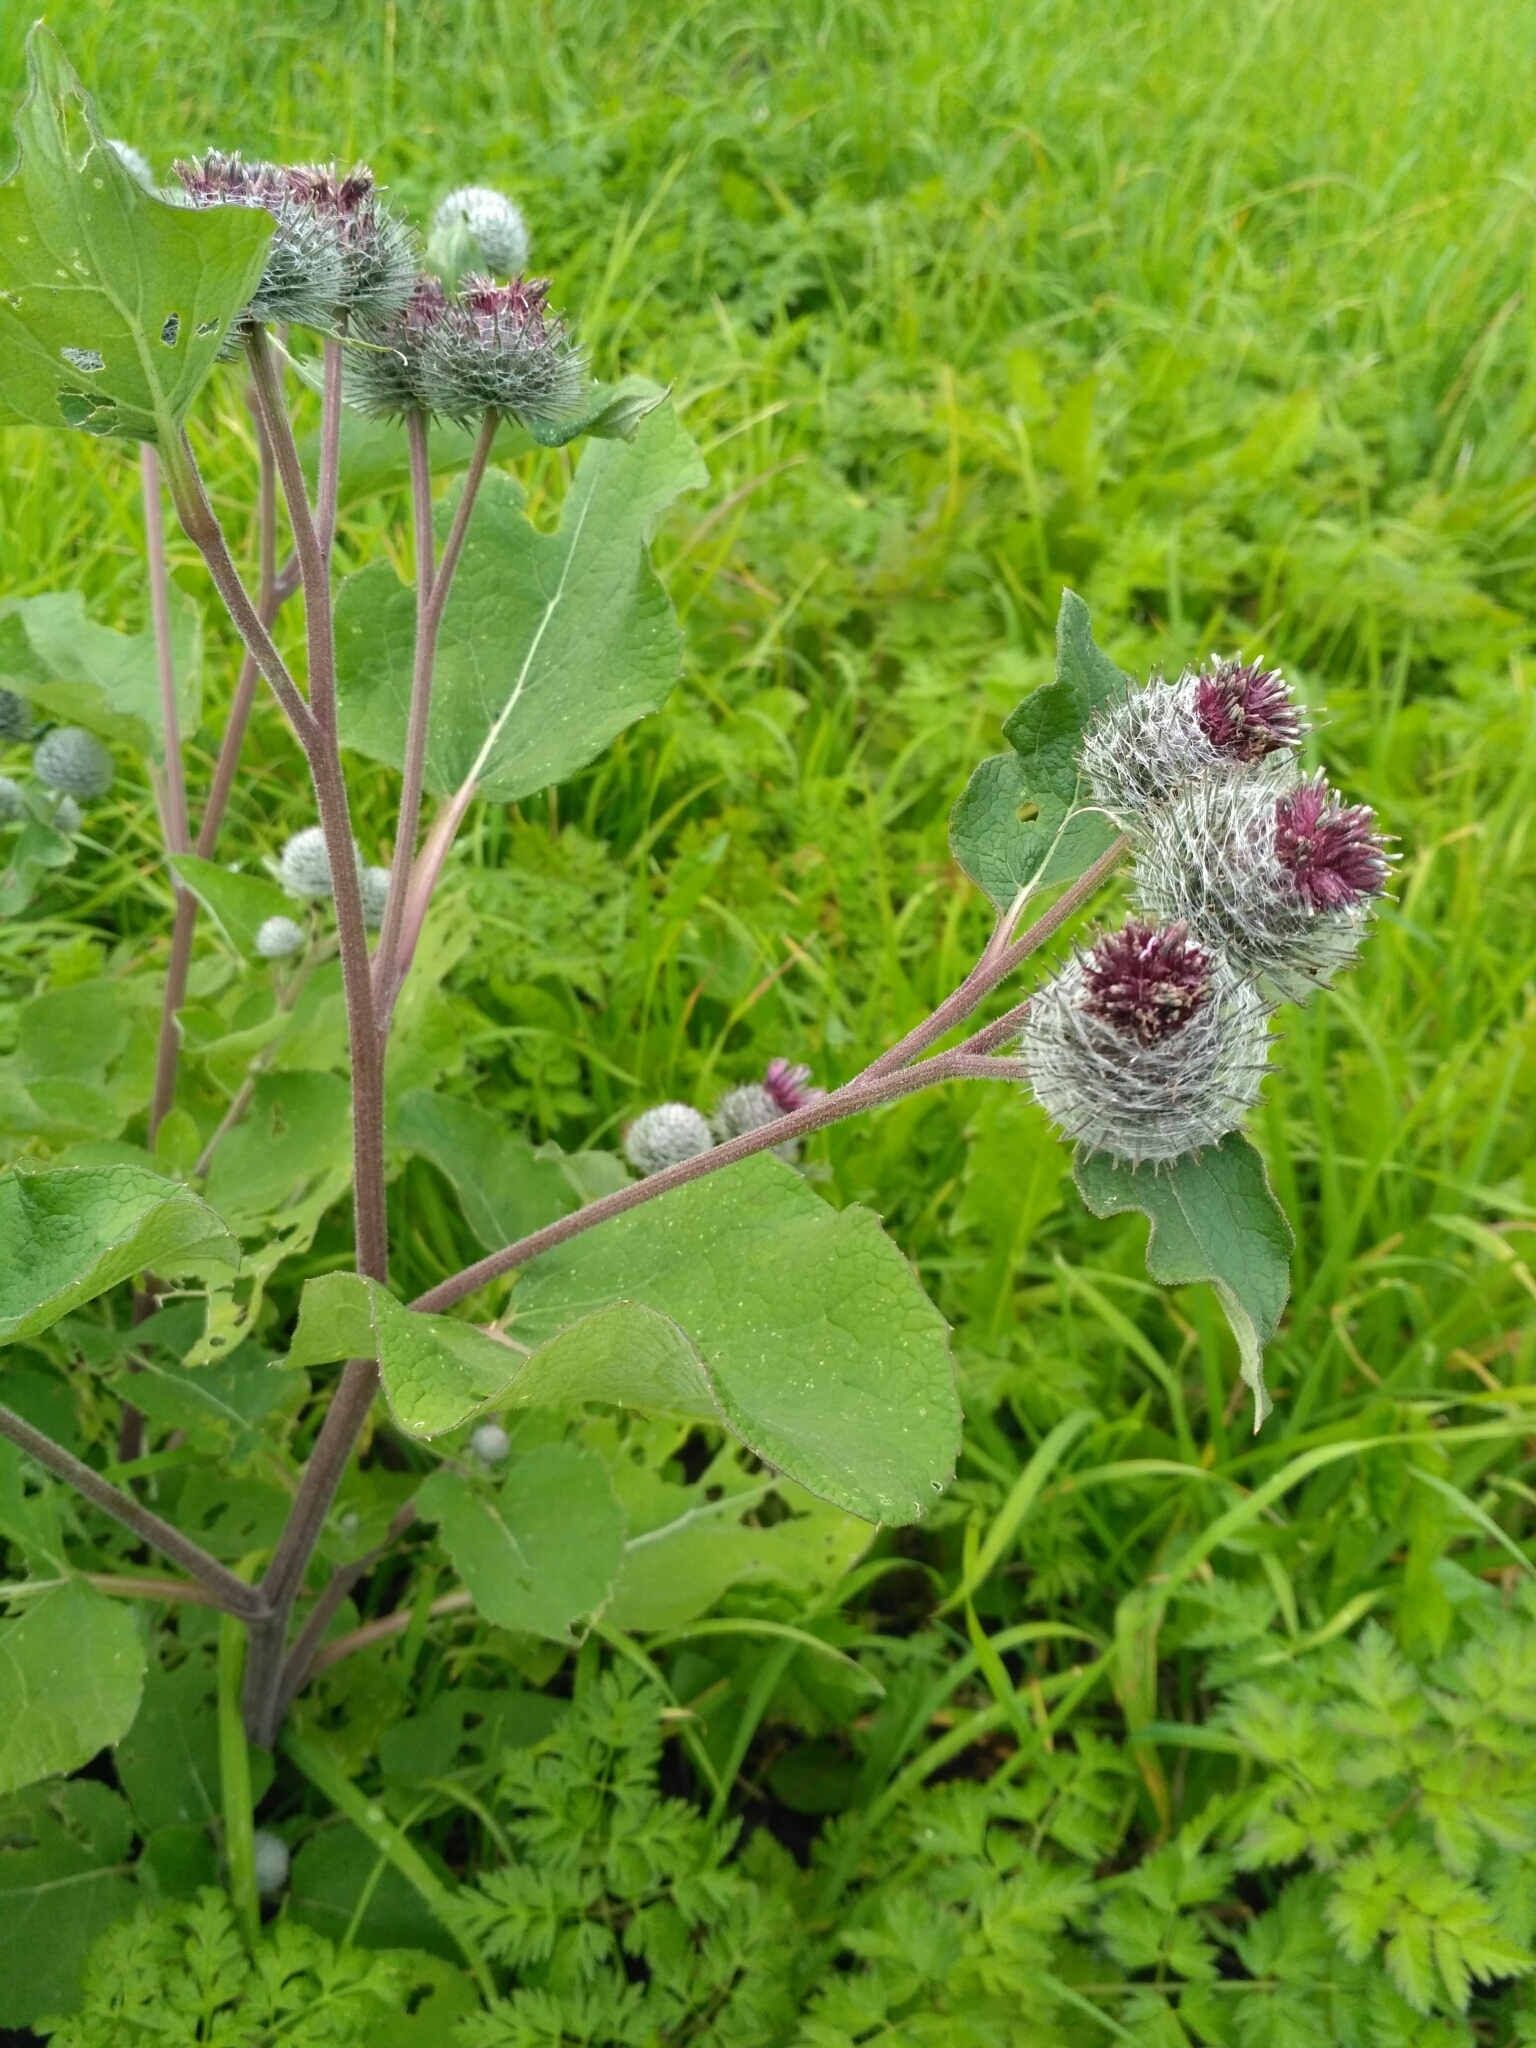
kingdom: Plantae
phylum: Tracheophyta
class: Magnoliopsida
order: Asterales
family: Asteraceae
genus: Arctium
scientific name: Arctium tomentosum
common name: Woolly burdock
